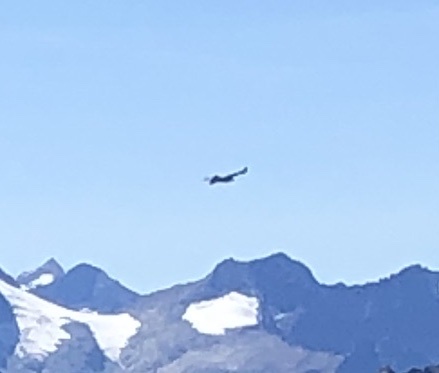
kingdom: Animalia
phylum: Chordata
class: Aves
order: Accipitriformes
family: Accipitridae
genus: Gypaetus
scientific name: Gypaetus barbatus
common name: Bearded vulture
